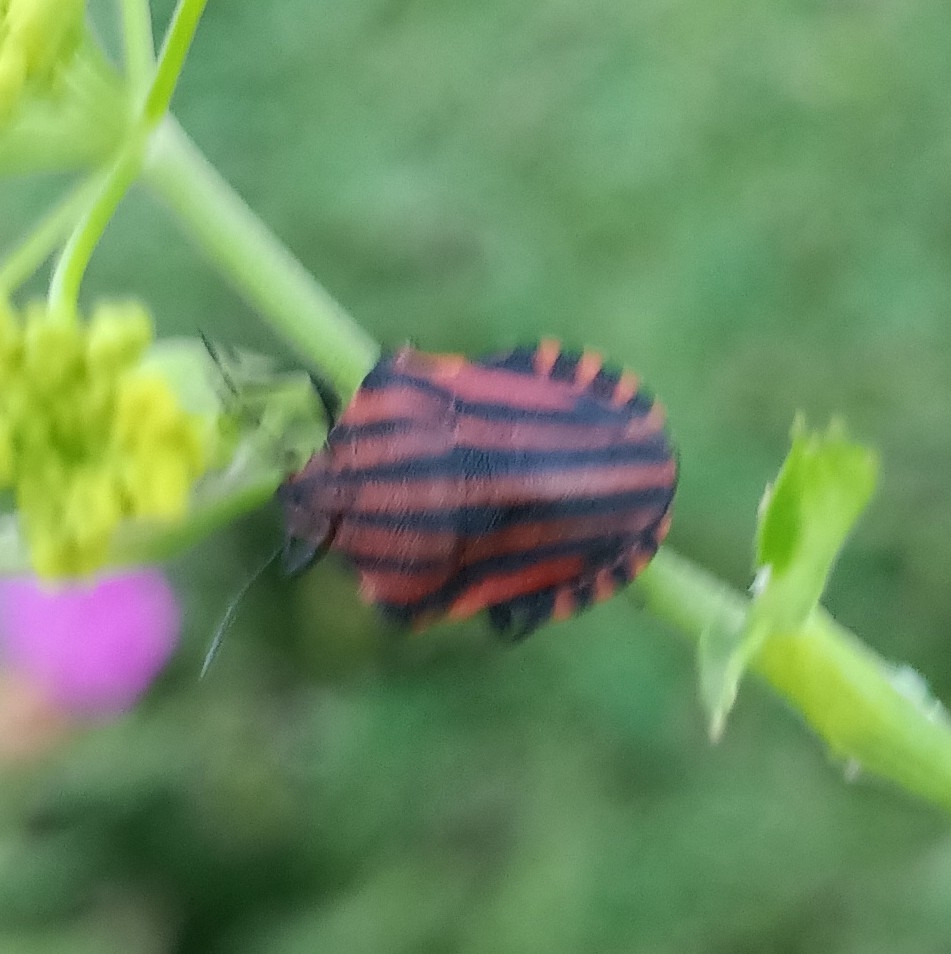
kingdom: Animalia
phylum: Arthropoda
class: Insecta
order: Hemiptera
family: Pentatomidae
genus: Graphosoma
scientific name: Graphosoma italicum
